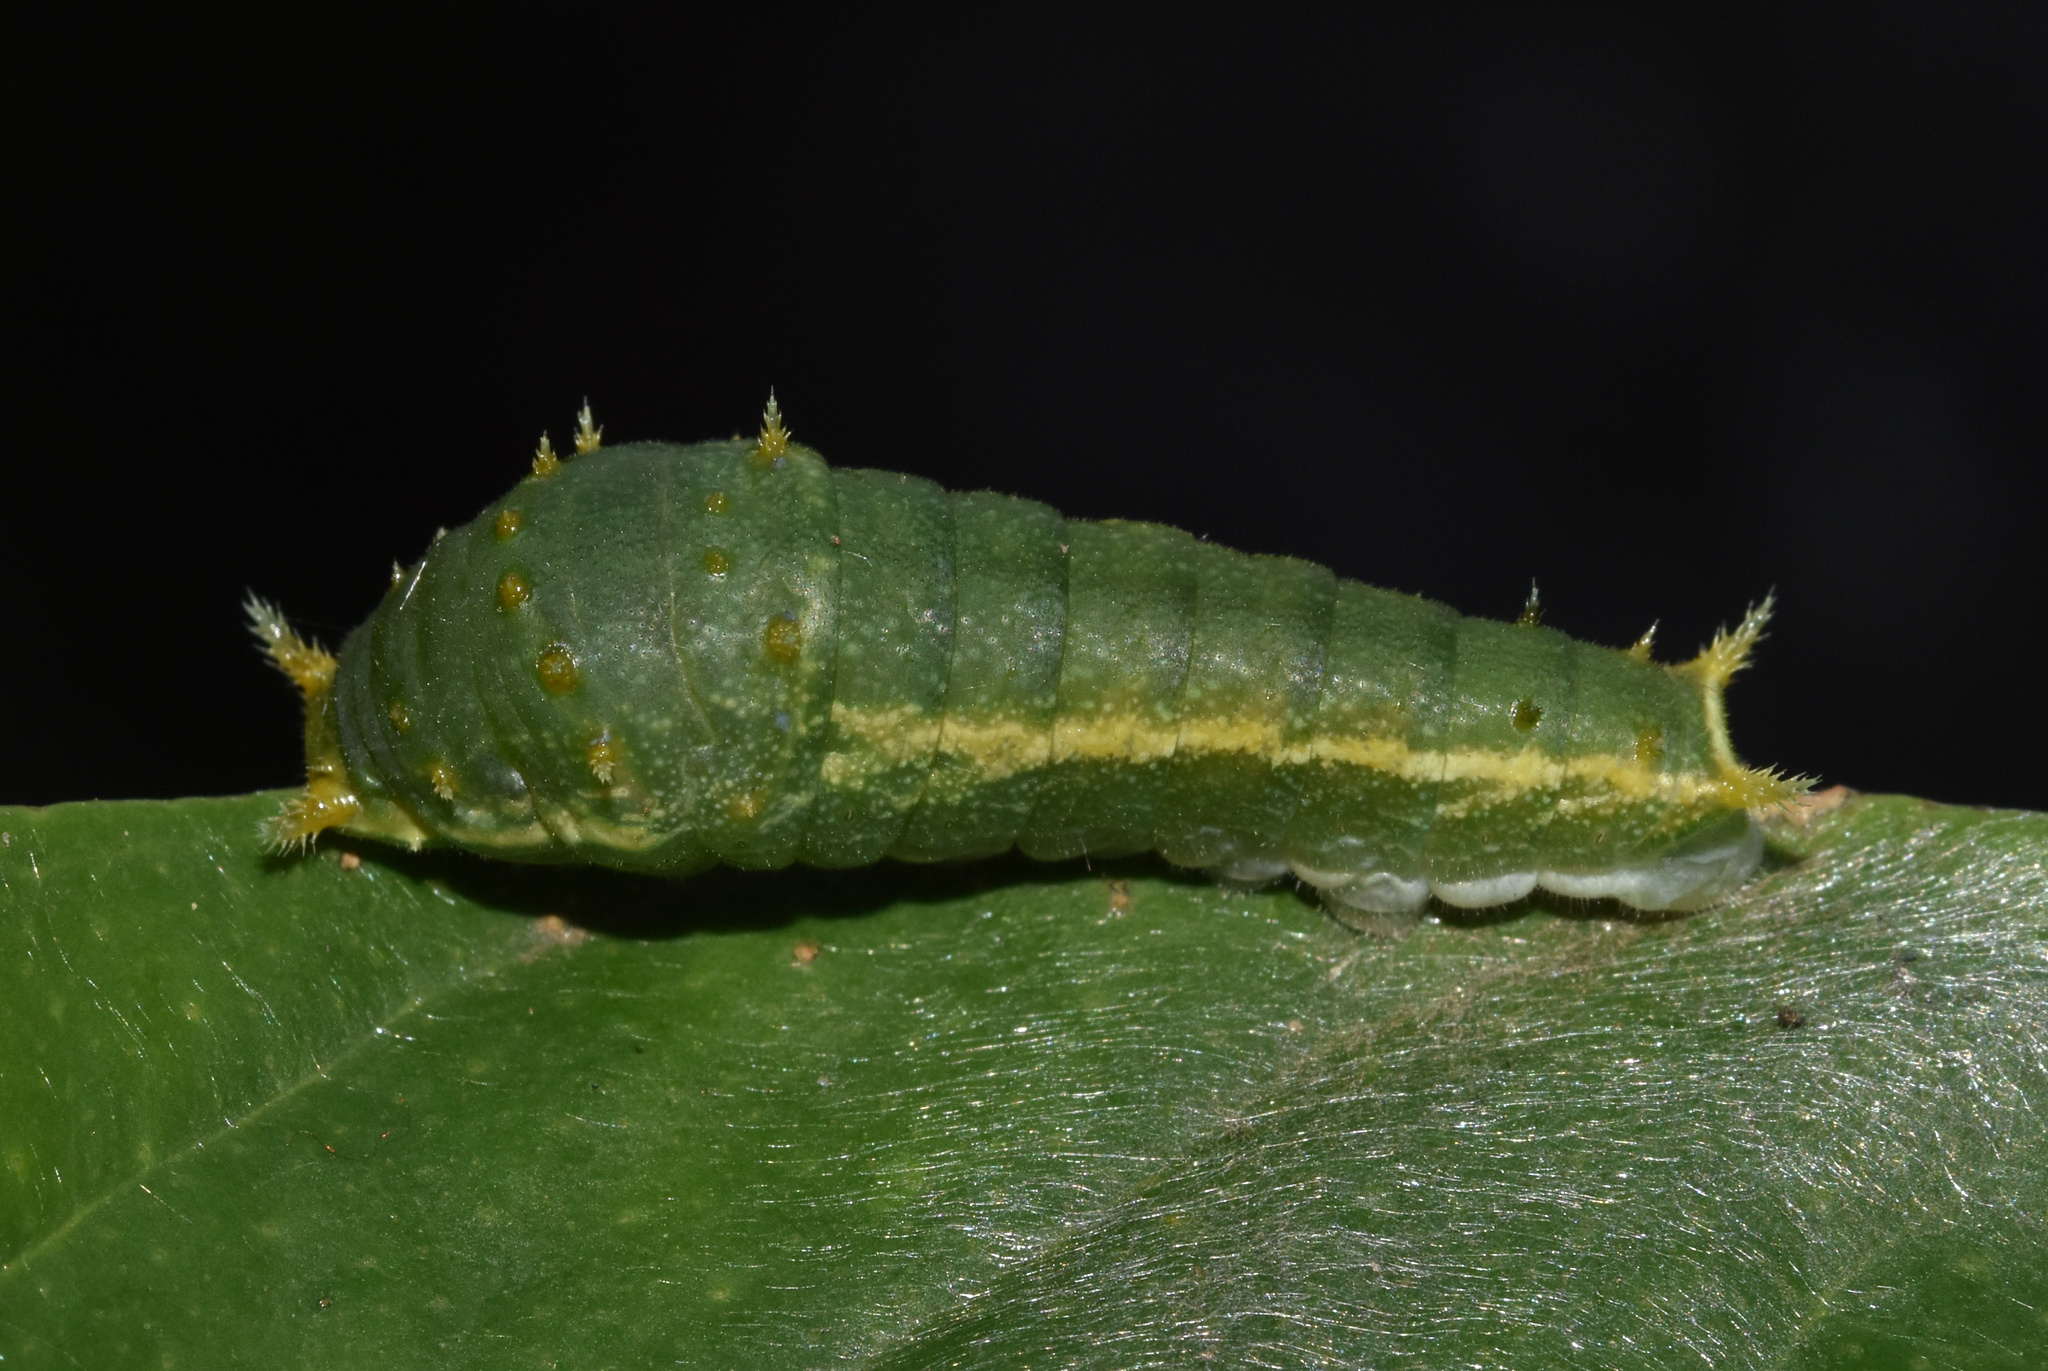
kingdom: Animalia
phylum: Arthropoda
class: Insecta
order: Lepidoptera
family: Papilionidae
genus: Papilio
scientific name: Papilio nireus
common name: Greenbanded swallowtail
